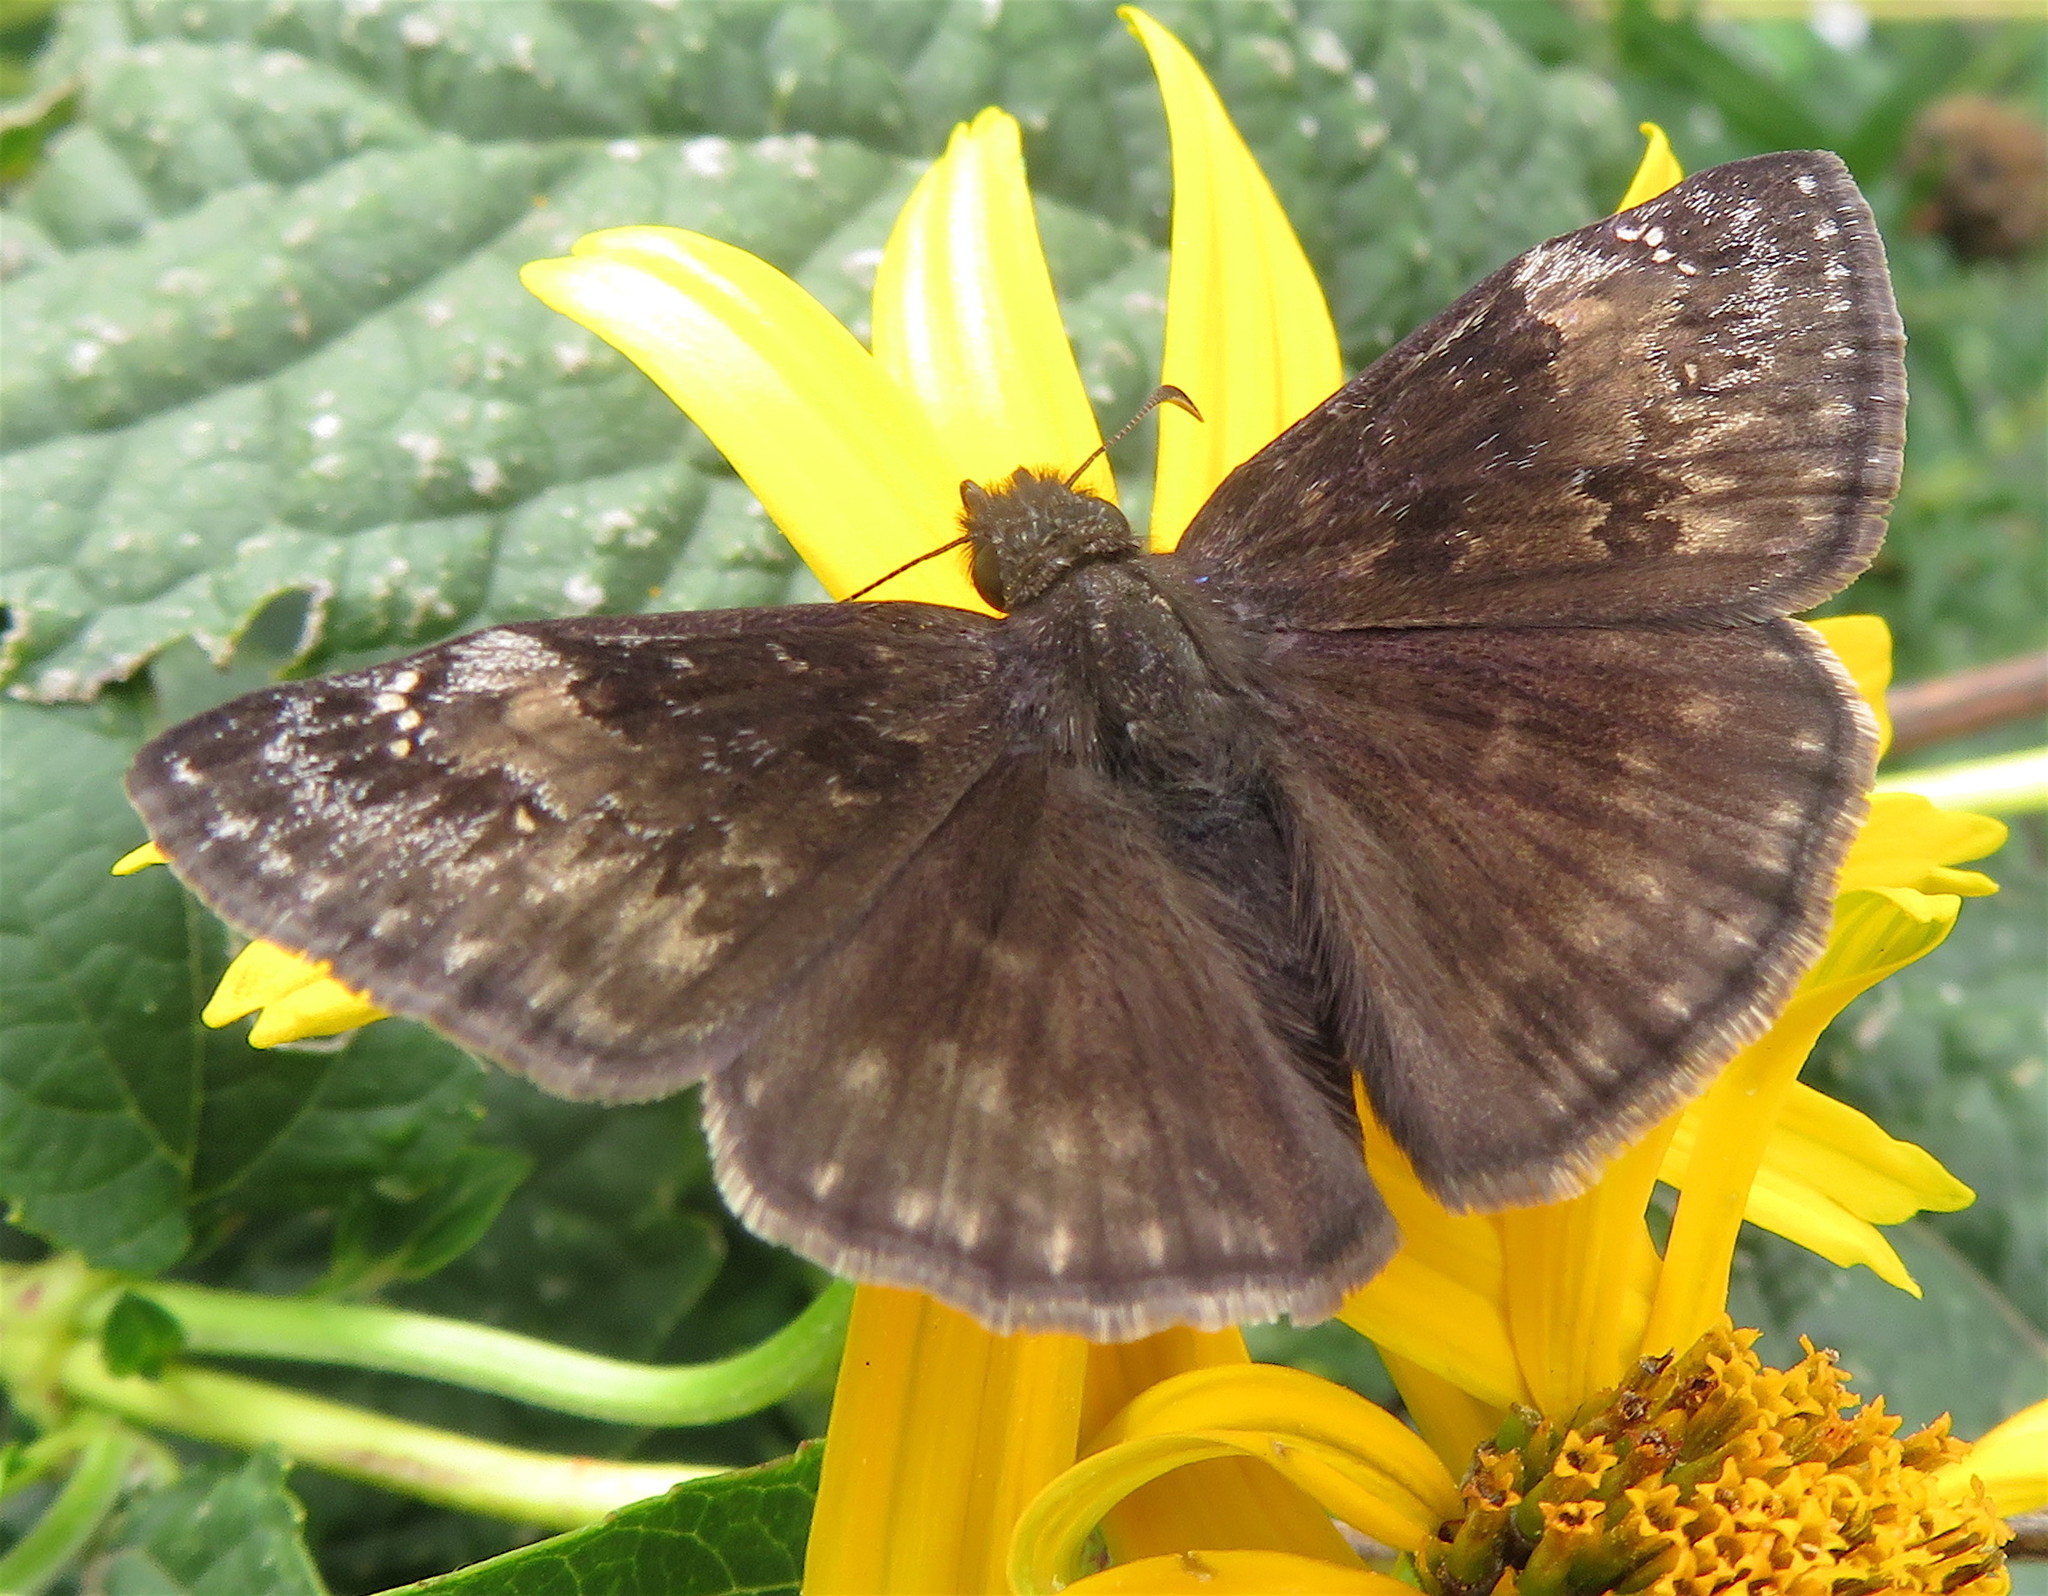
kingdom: Animalia
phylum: Arthropoda
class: Insecta
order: Lepidoptera
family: Hesperiidae
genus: Erynnis
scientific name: Erynnis baptisiae
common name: Wild indigo duskywing
